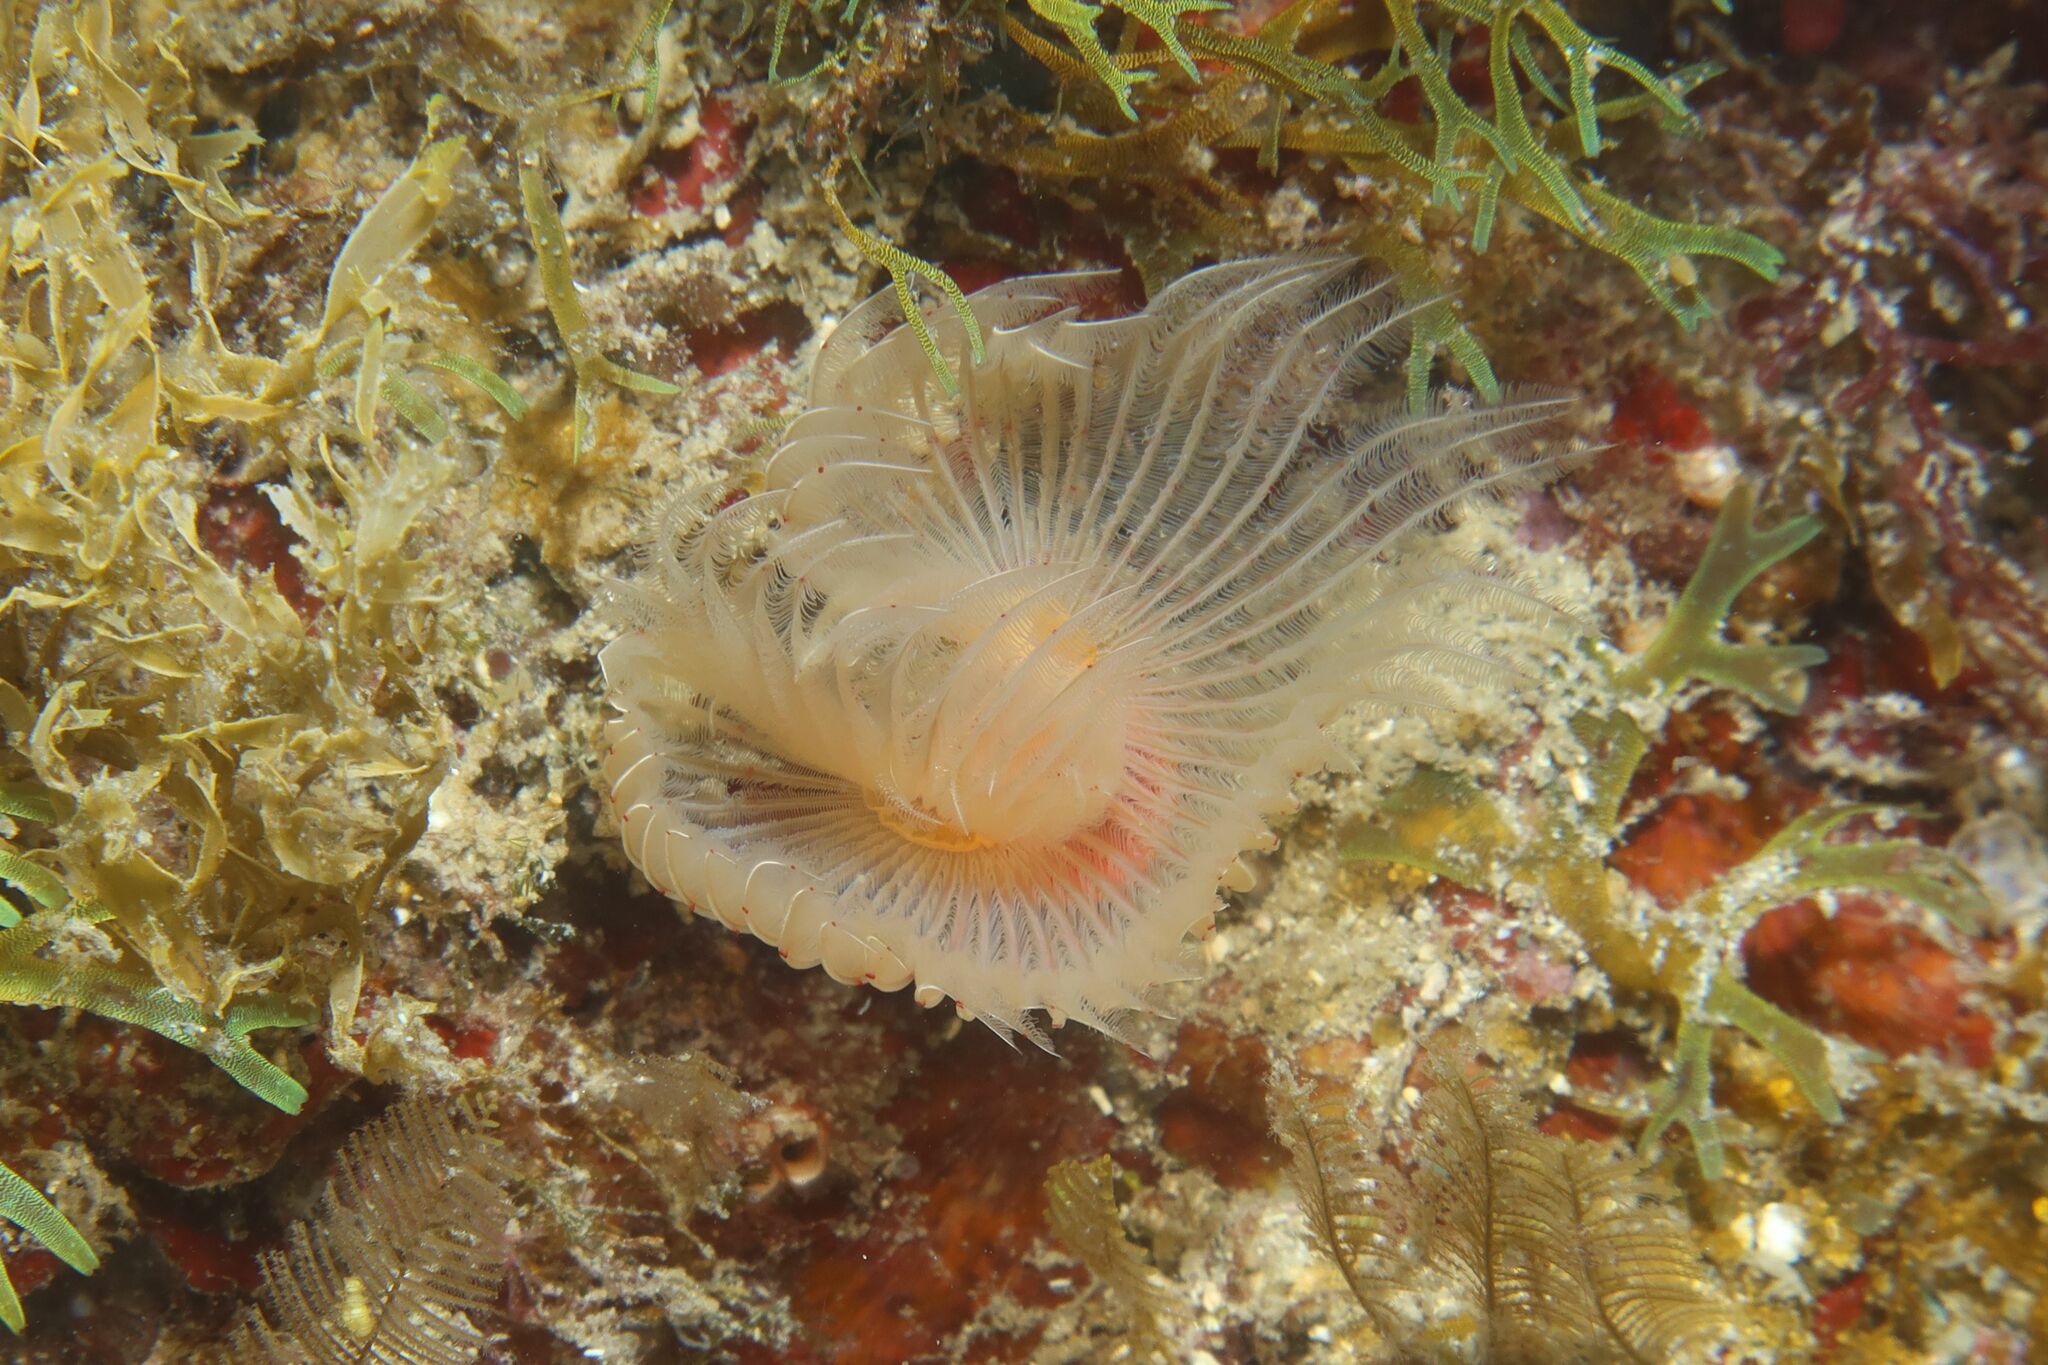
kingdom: Animalia
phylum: Annelida
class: Polychaeta
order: Sabellida
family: Serpulidae
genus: Protula
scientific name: Protula tubularia
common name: Red-spotted horseshoe
